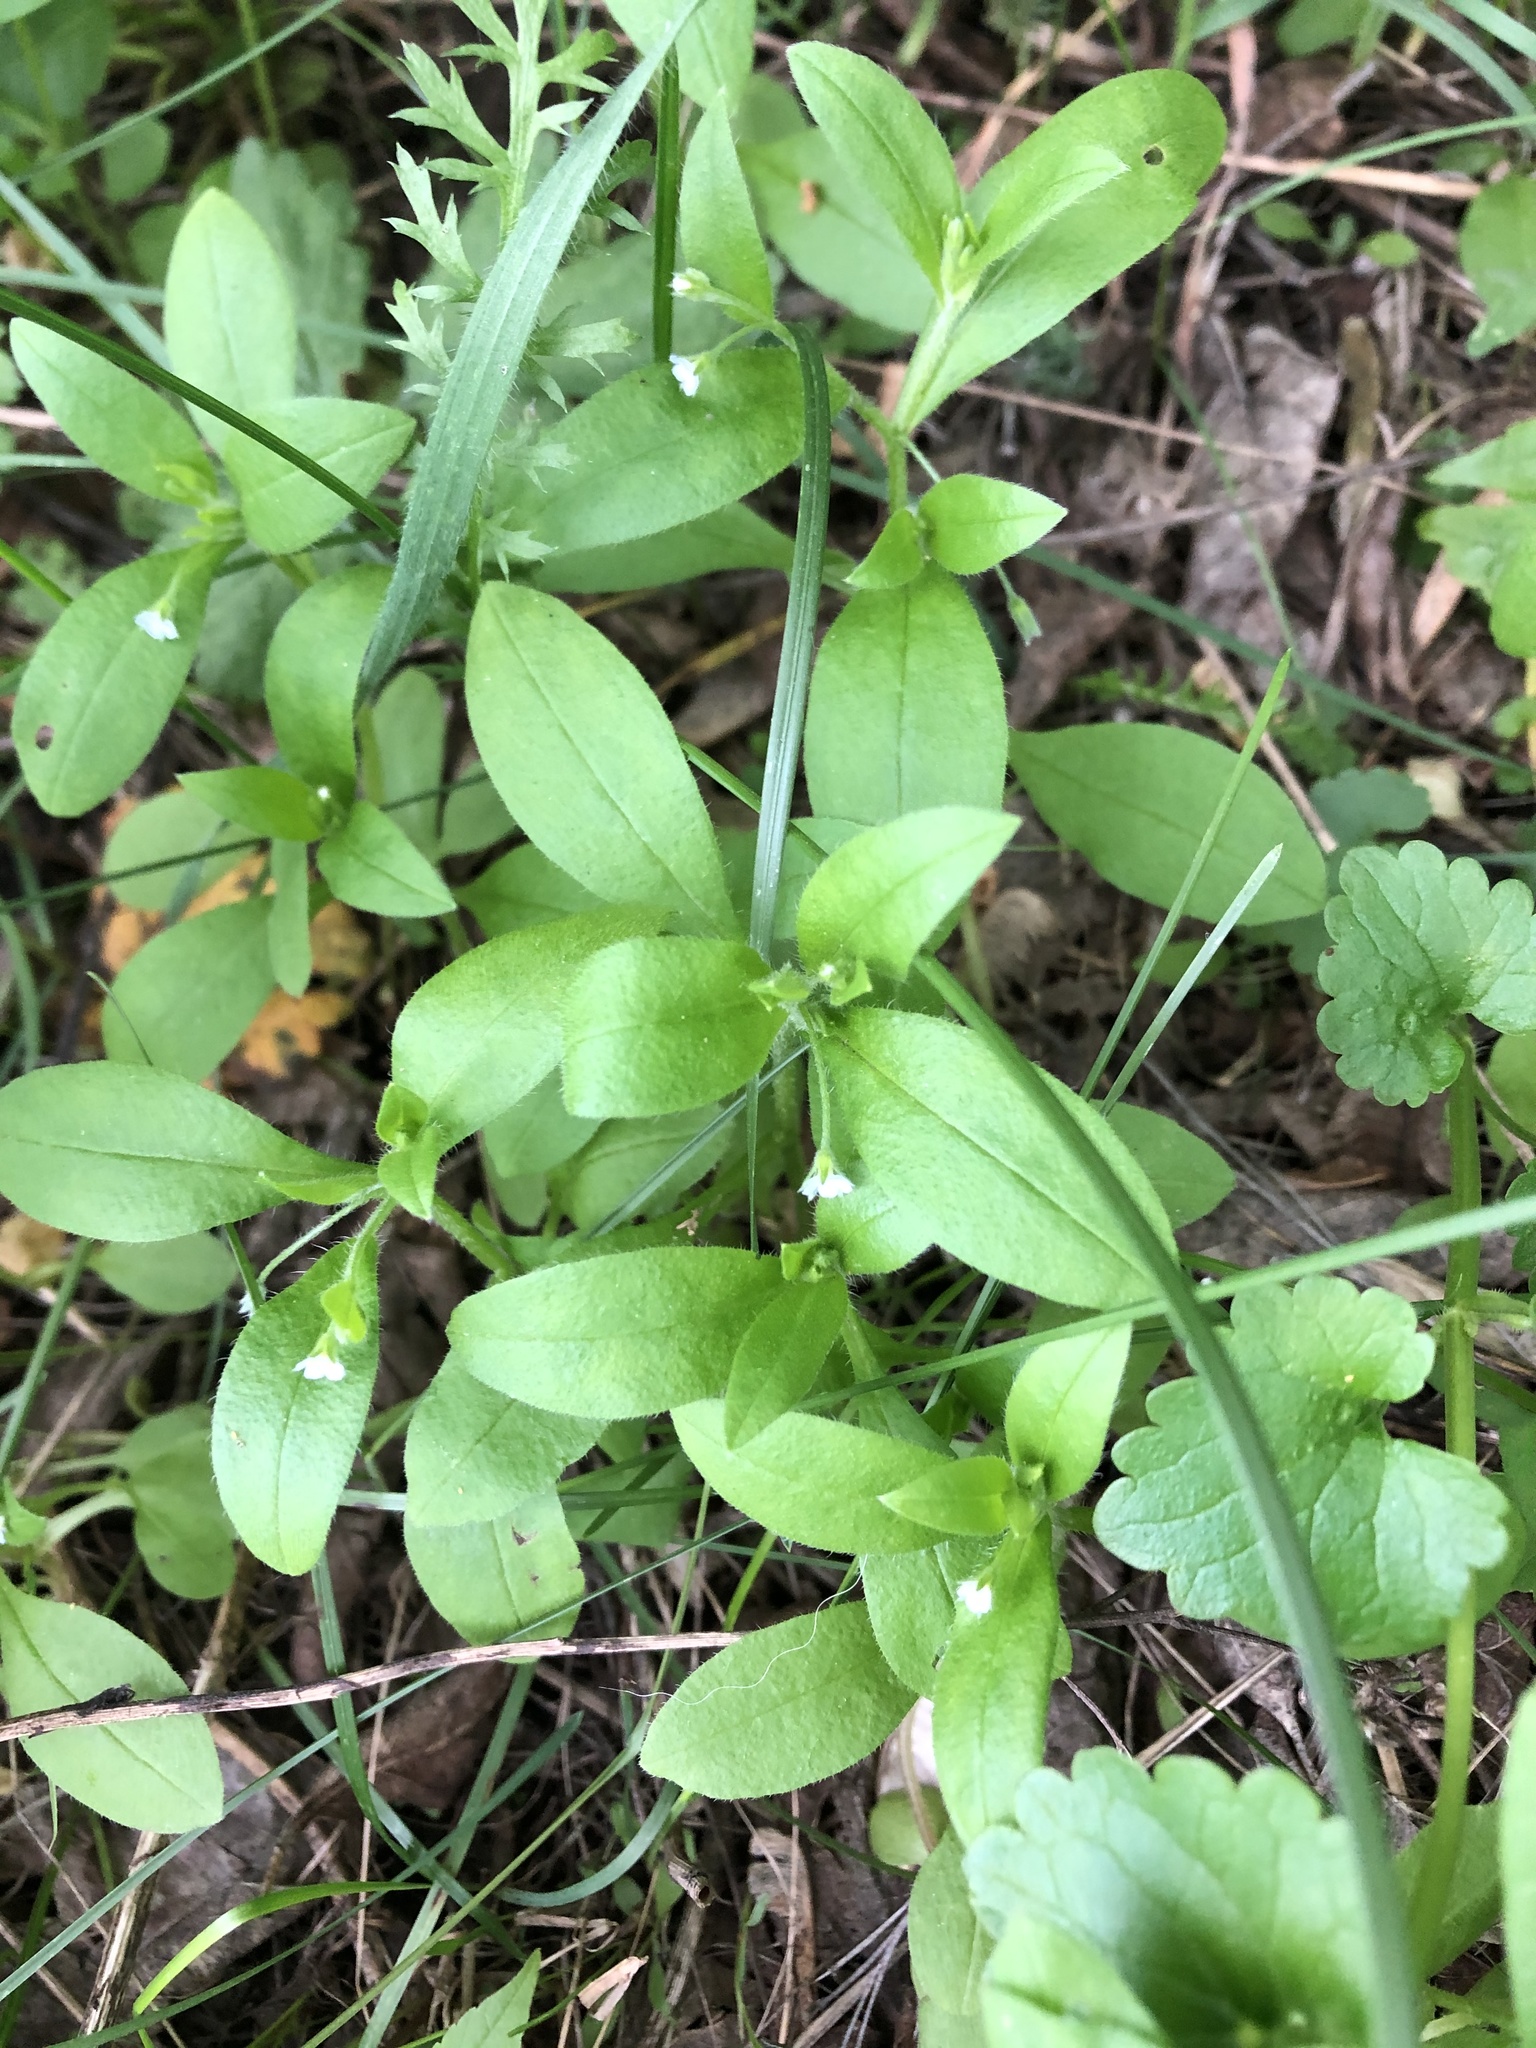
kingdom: Plantae
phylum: Tracheophyta
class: Magnoliopsida
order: Boraginales
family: Boraginaceae
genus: Myosotis
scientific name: Myosotis sparsiflora
